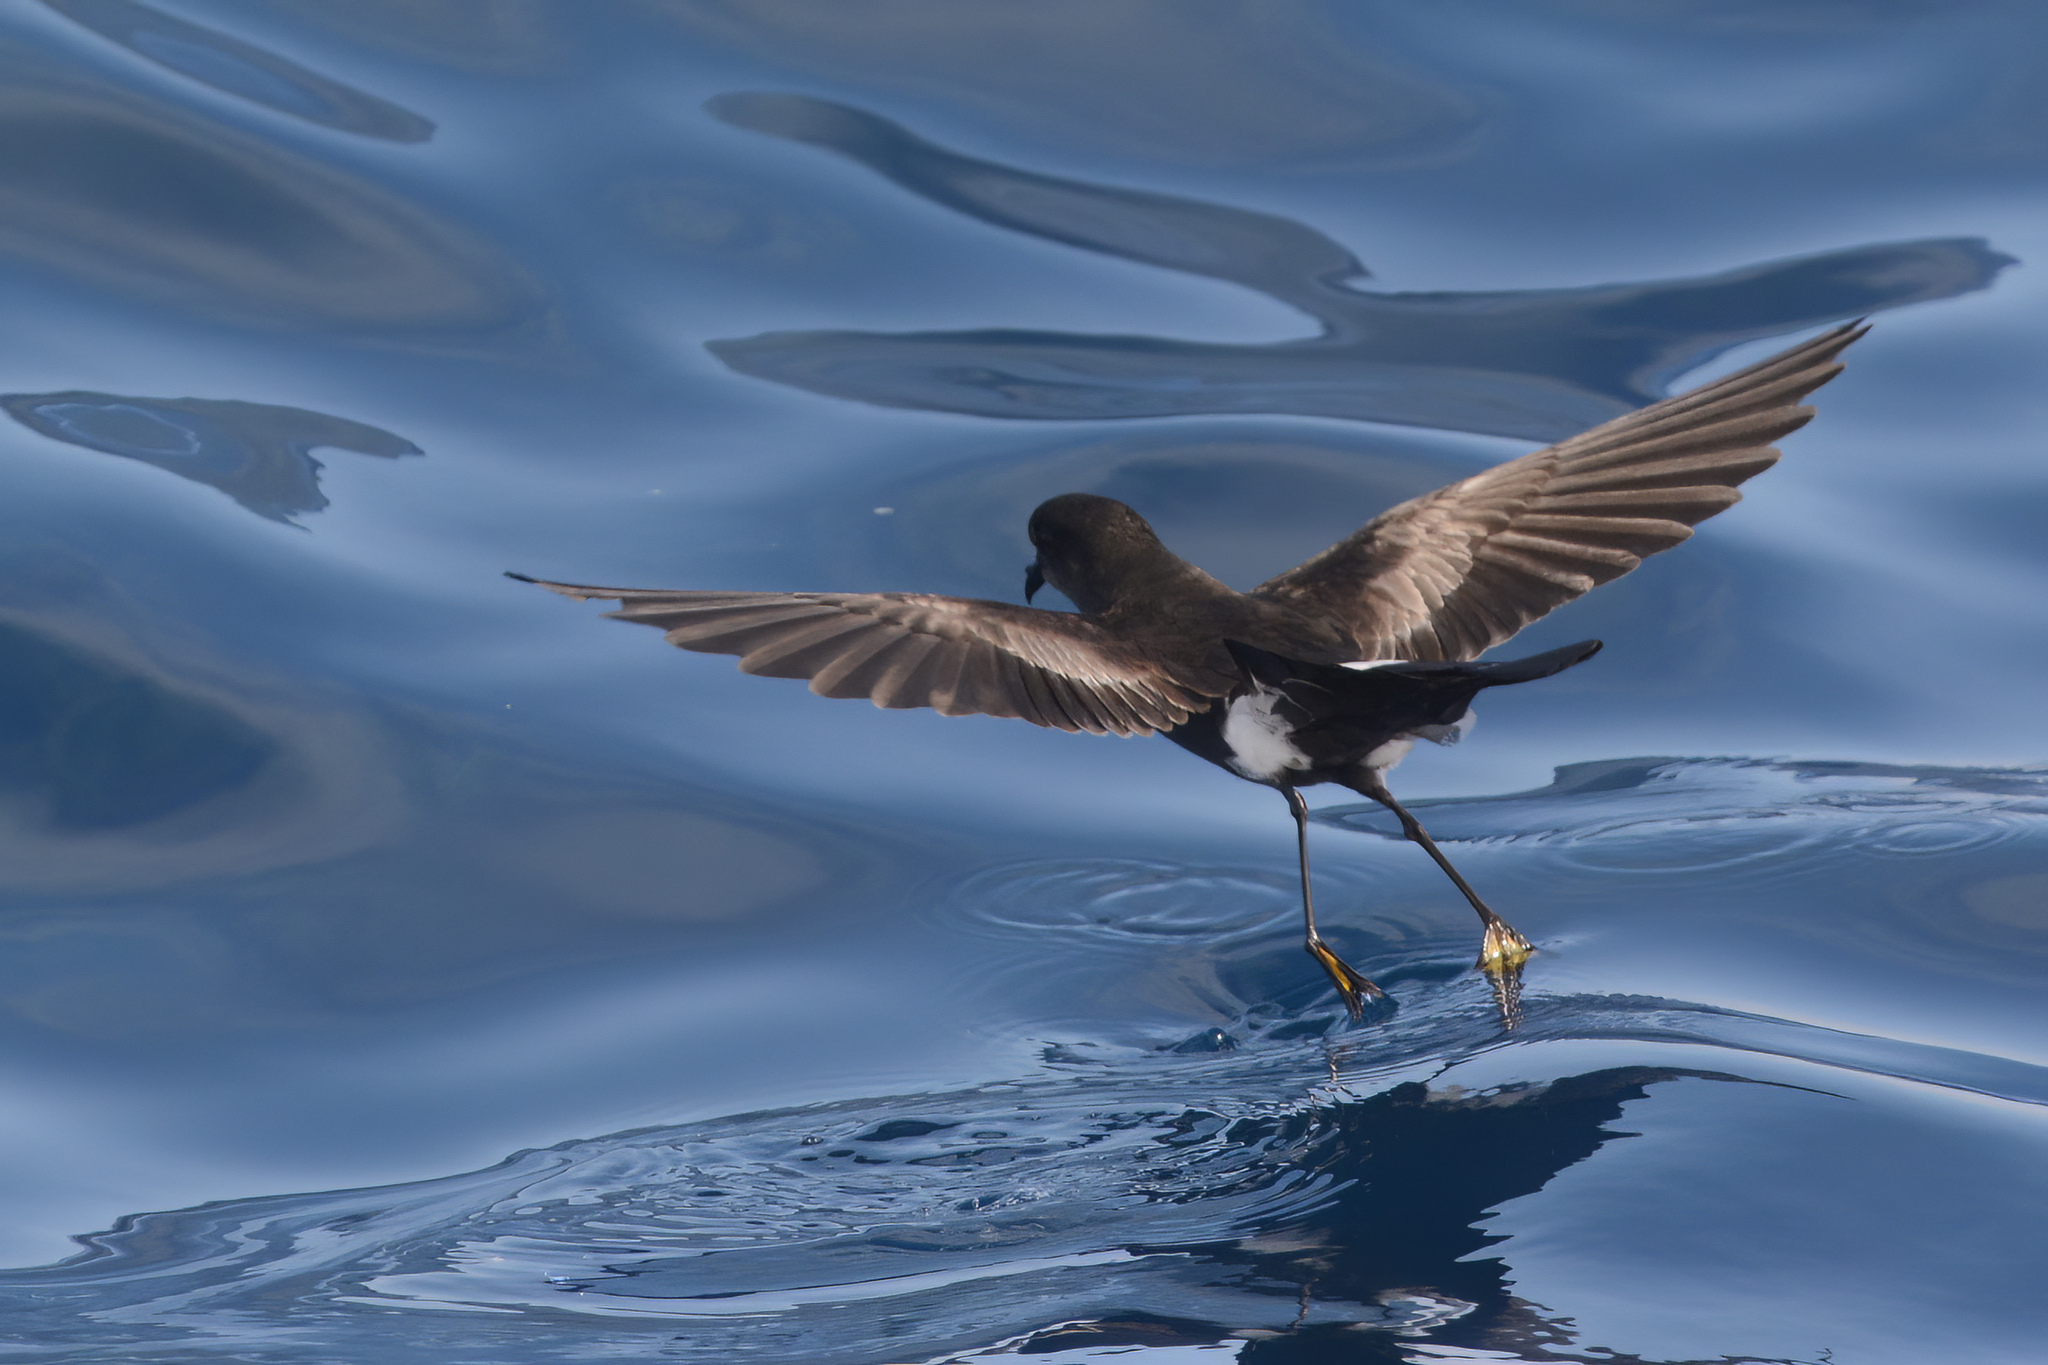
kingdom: Animalia
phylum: Chordata
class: Aves
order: Procellariiformes
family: Hydrobatidae
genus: Oceanites
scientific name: Oceanites oceanicus
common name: Wilson's storm petrel
